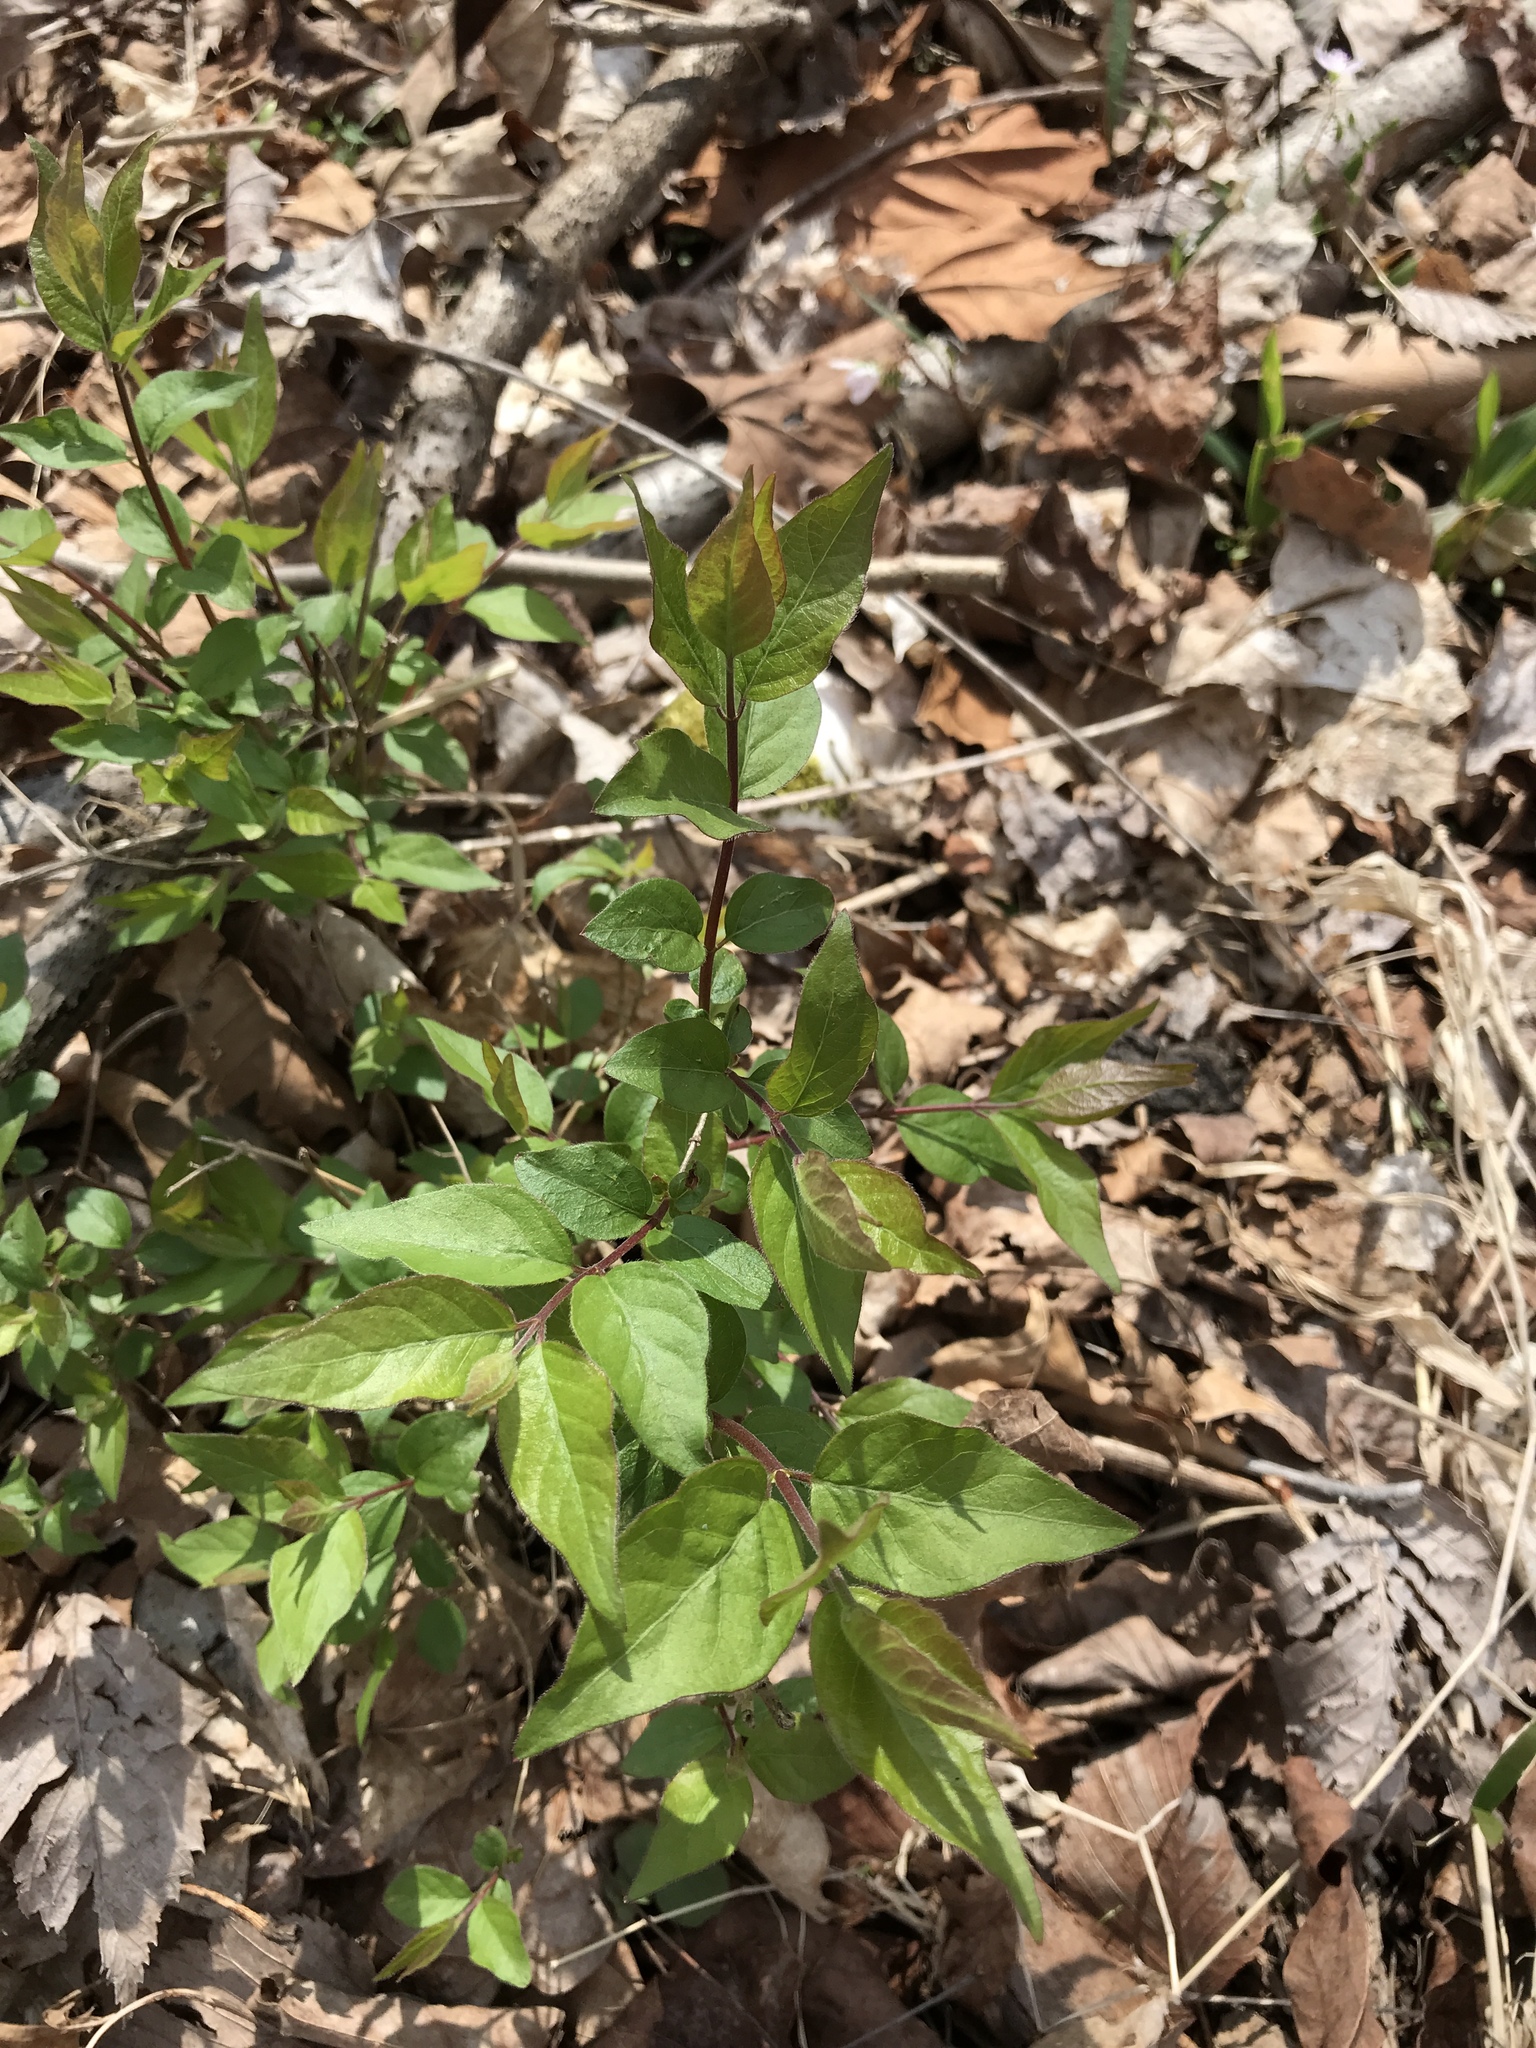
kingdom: Plantae
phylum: Tracheophyta
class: Magnoliopsida
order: Dipsacales
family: Caprifoliaceae
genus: Lonicera
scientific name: Lonicera maackii
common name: Amur honeysuckle
